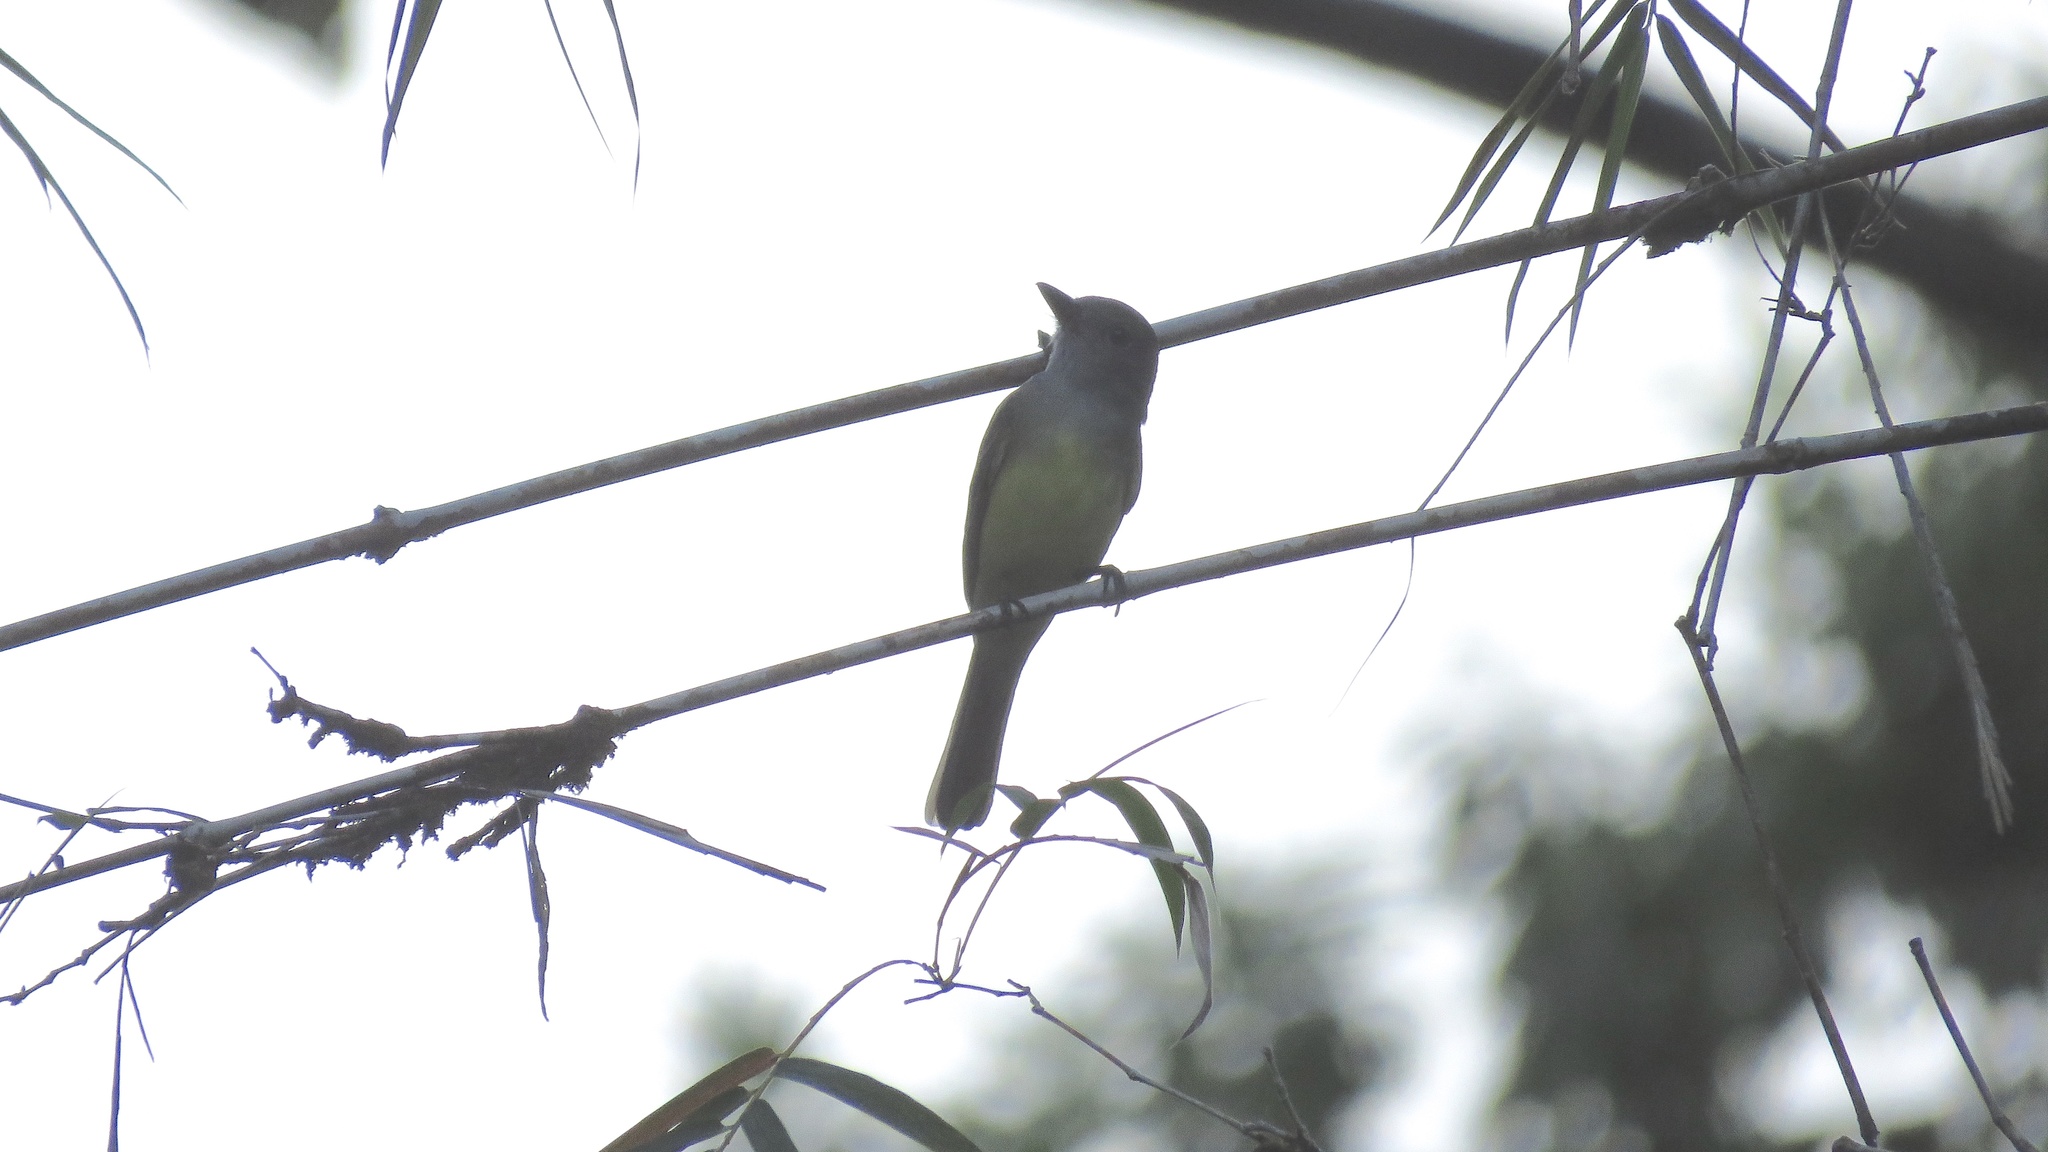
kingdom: Animalia
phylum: Chordata
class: Aves
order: Passeriformes
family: Tyrannidae
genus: Myiarchus
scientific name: Myiarchus tuberculifer
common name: Dusky-capped flycatcher
